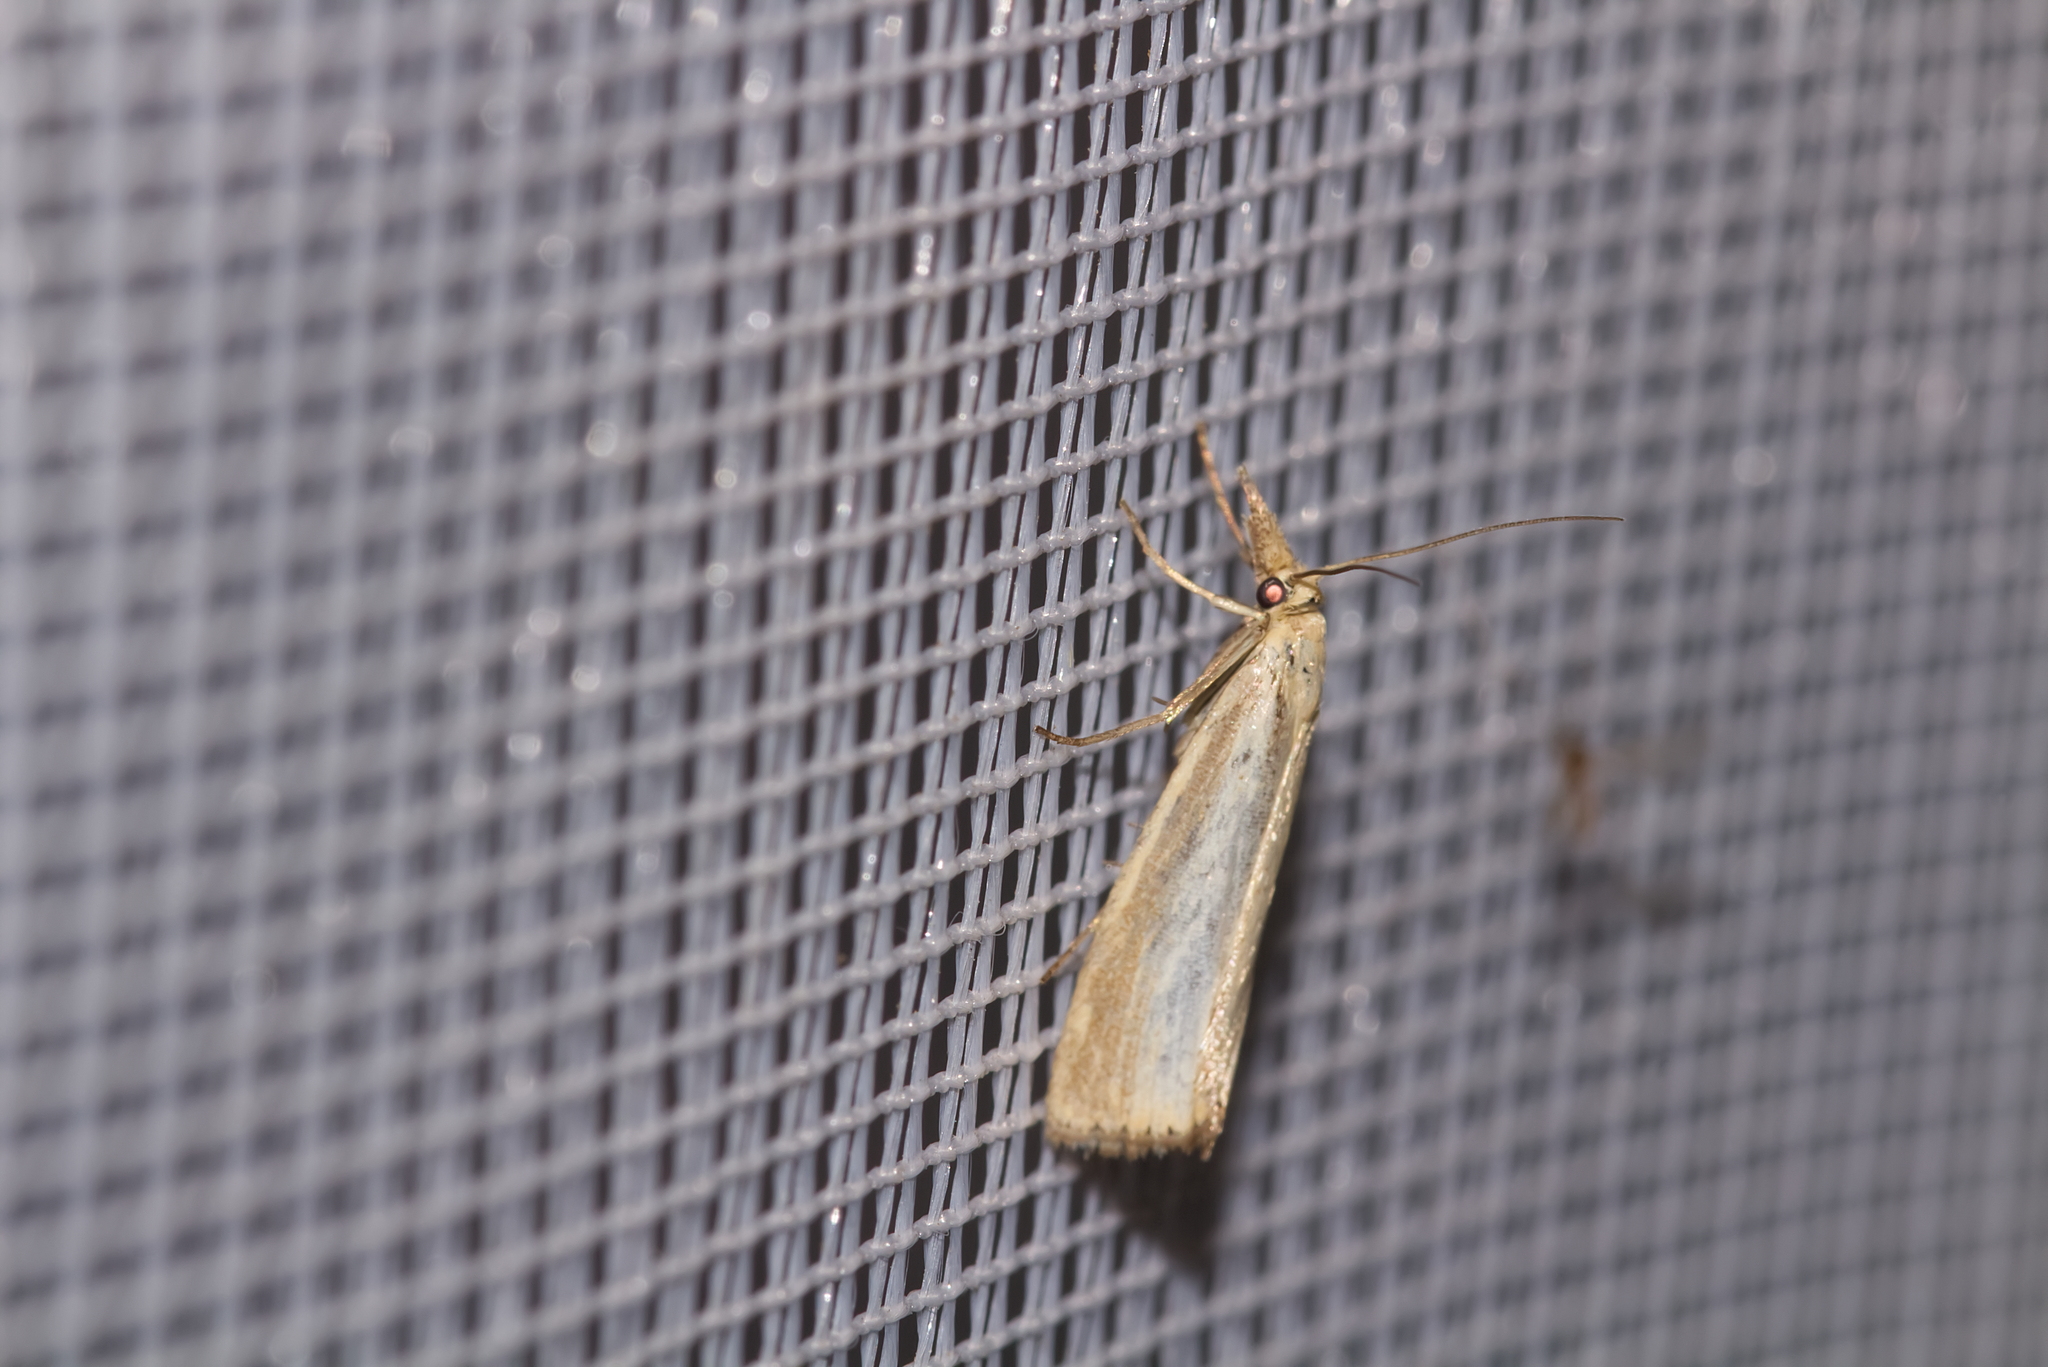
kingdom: Animalia
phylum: Arthropoda
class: Insecta
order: Lepidoptera
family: Crambidae
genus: Agriphila
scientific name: Agriphila straminella
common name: Straw grass-veneer
